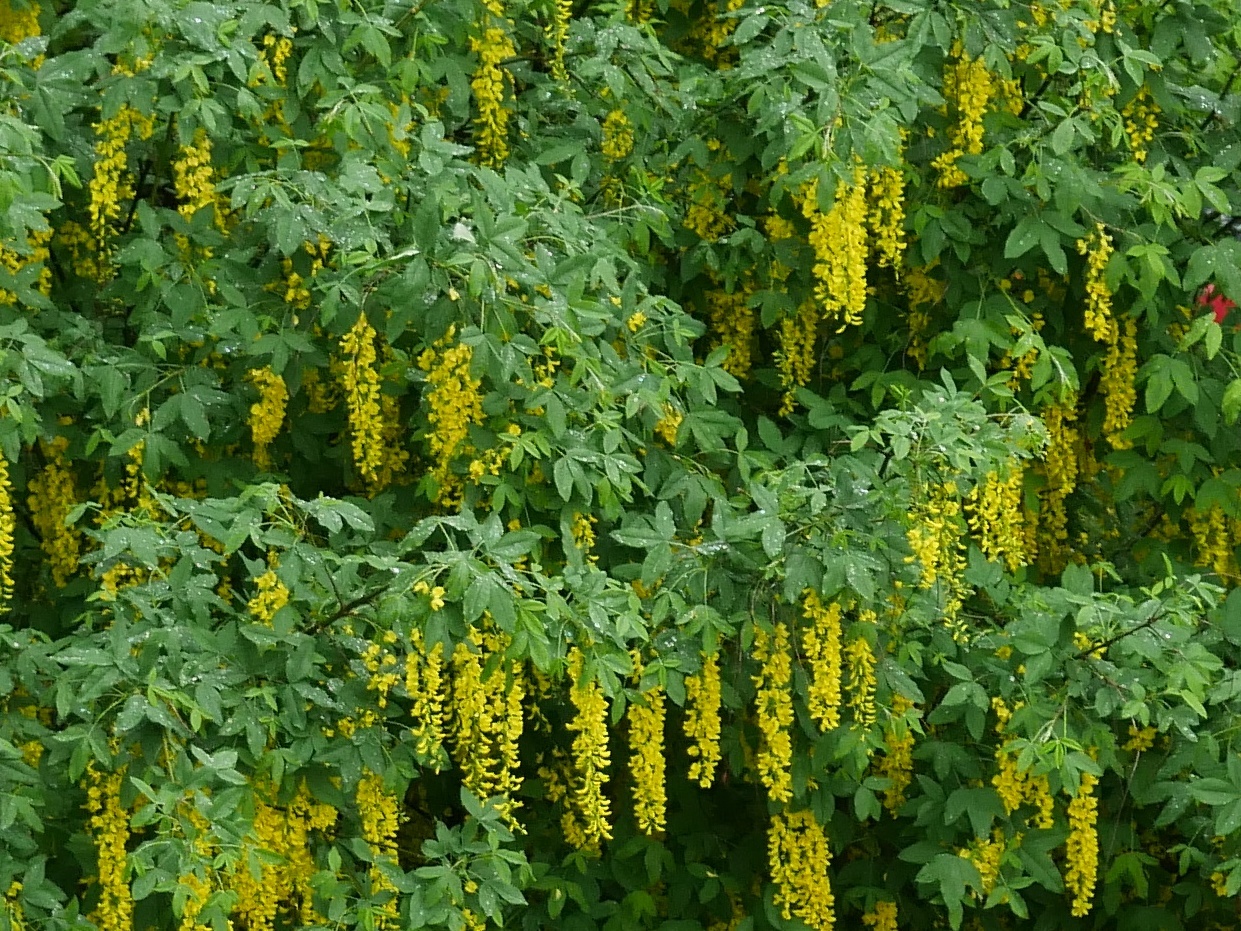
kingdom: Plantae
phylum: Tracheophyta
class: Magnoliopsida
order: Fabales
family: Fabaceae
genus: Laburnum
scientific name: Laburnum anagyroides
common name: Laburnum
